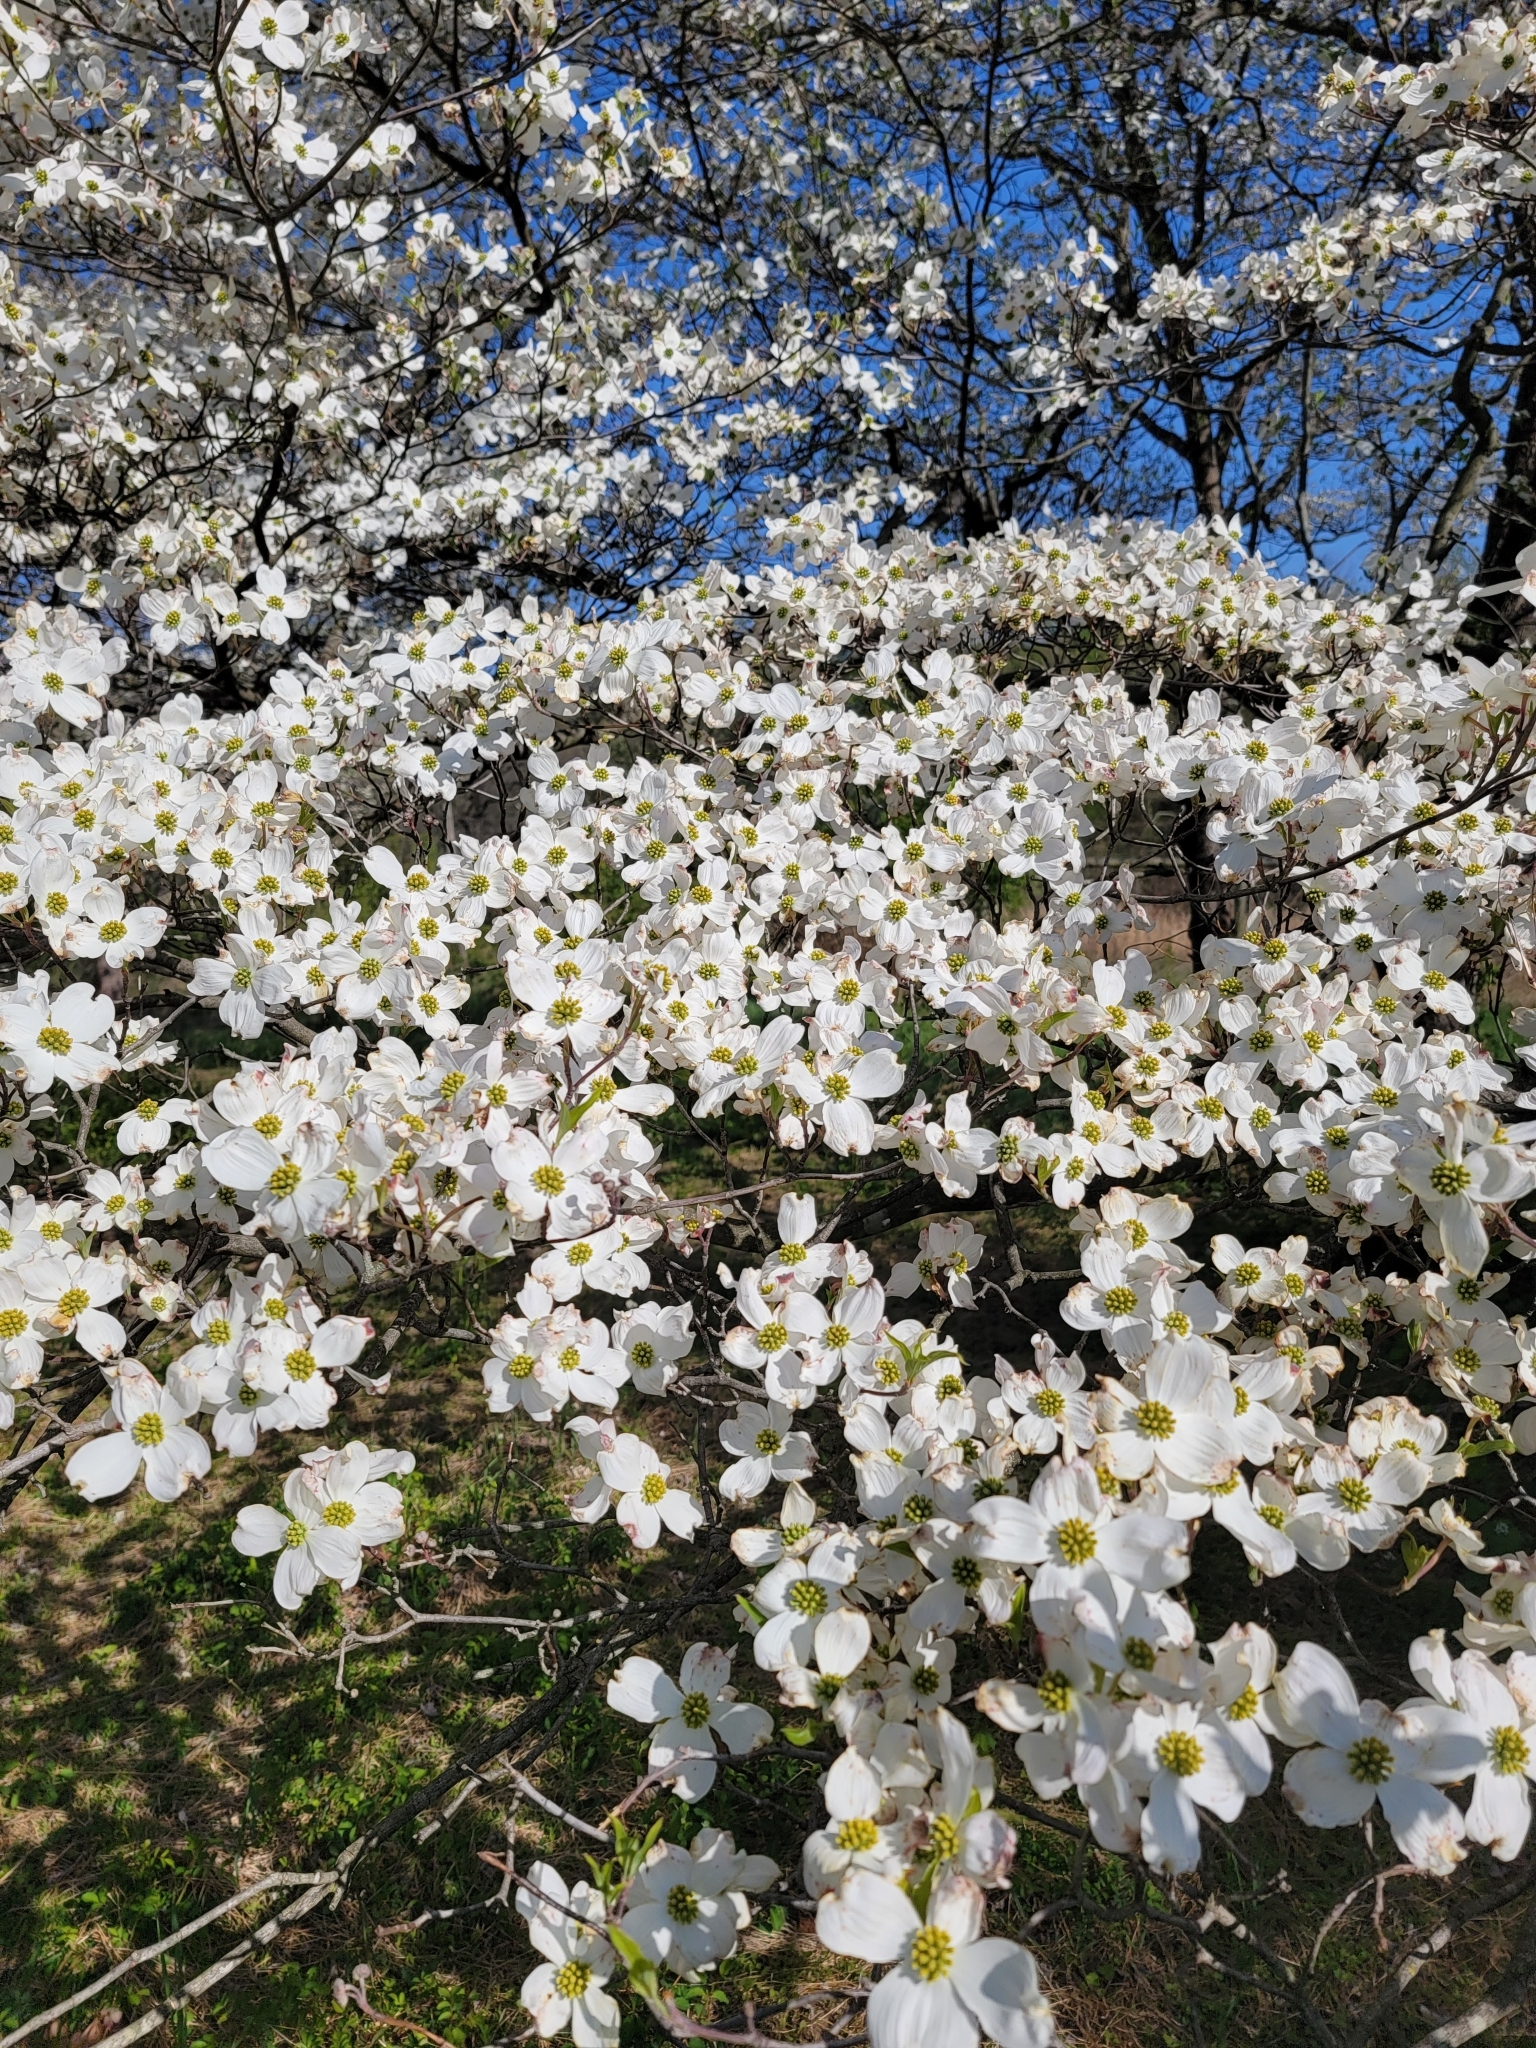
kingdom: Plantae
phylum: Tracheophyta
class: Magnoliopsida
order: Cornales
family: Cornaceae
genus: Cornus
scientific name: Cornus florida
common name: Flowering dogwood
